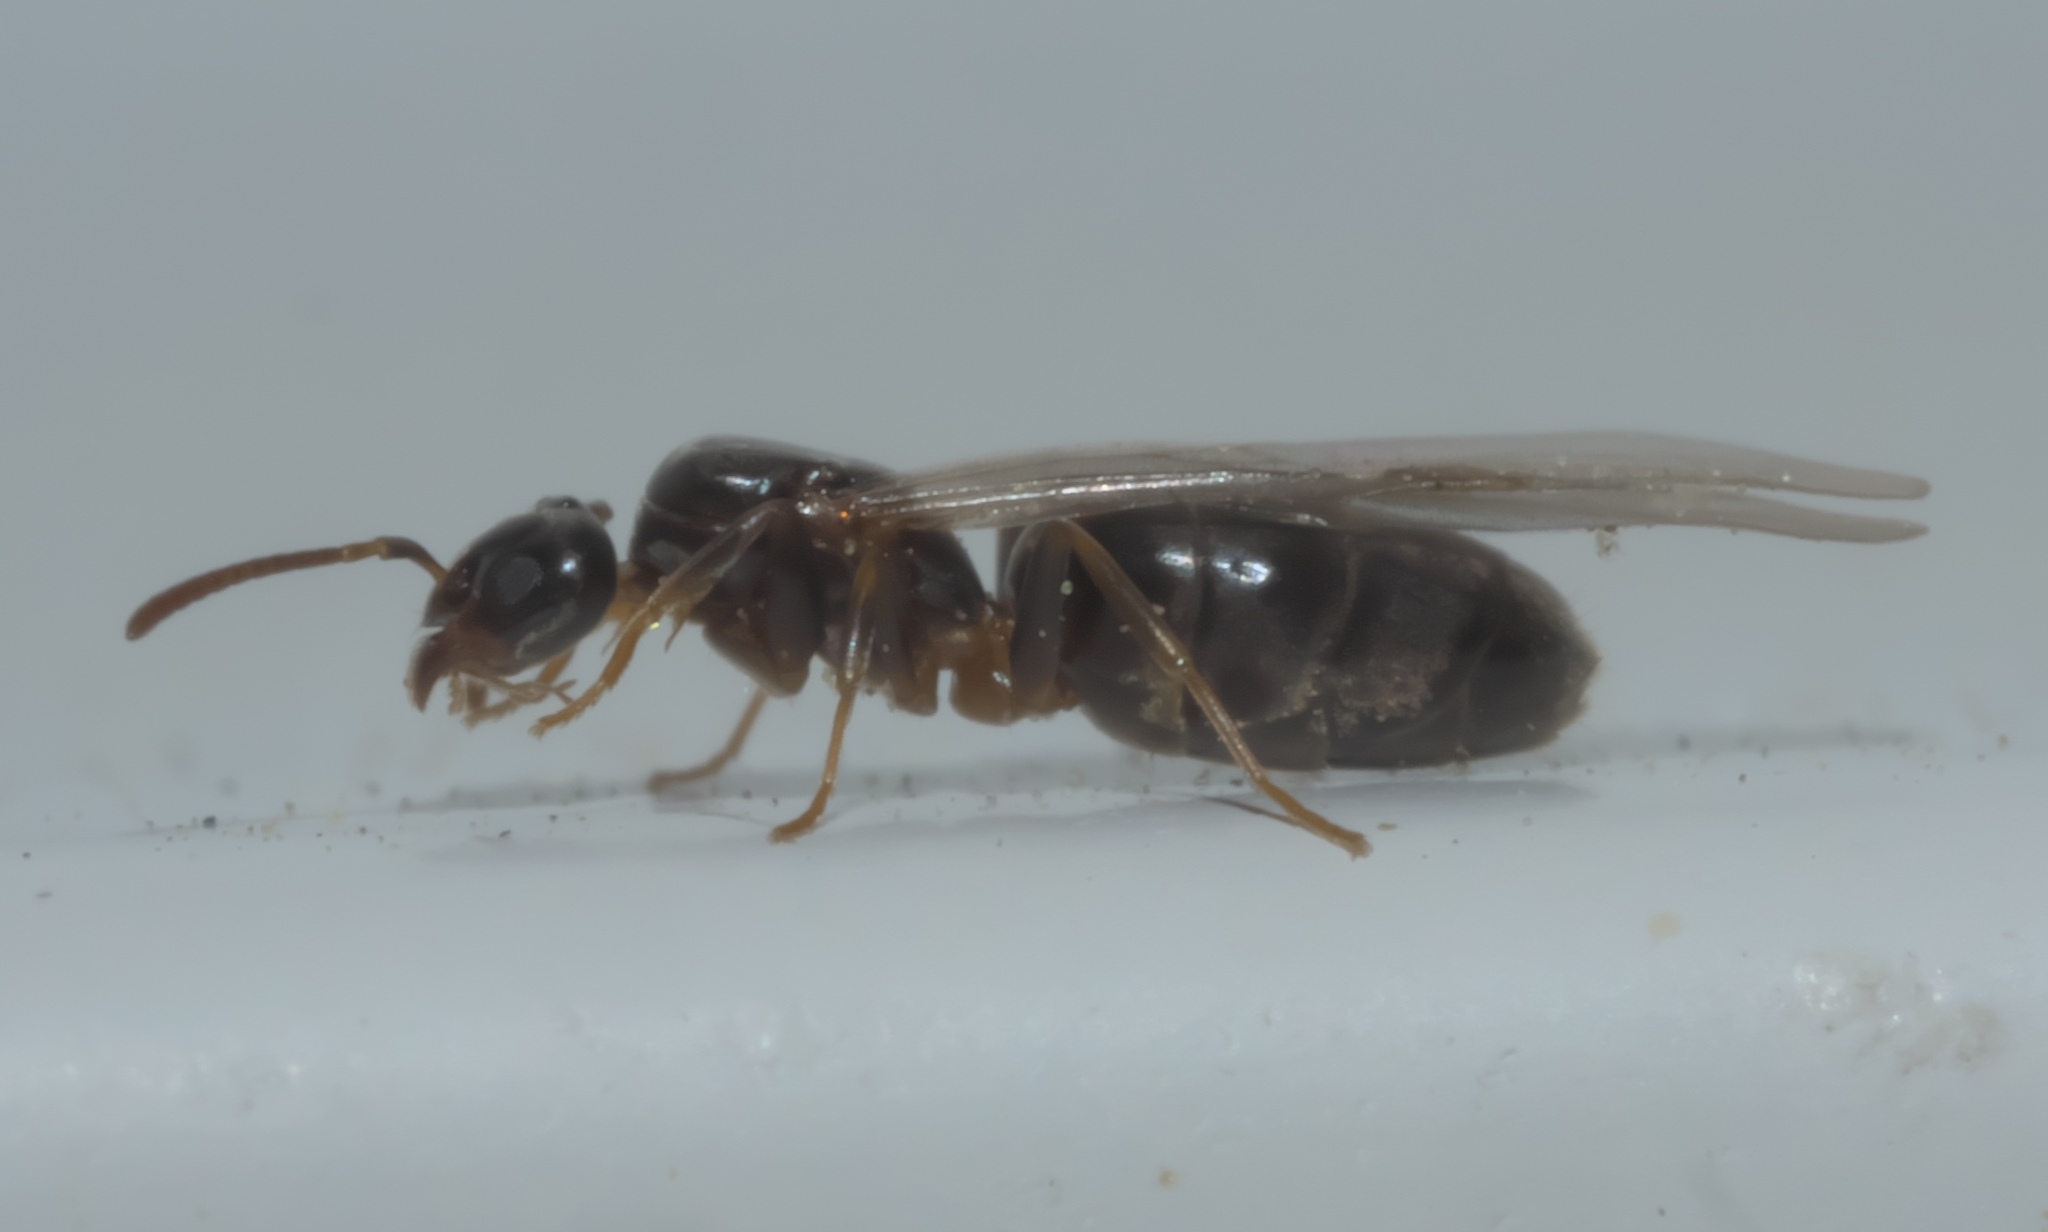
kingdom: Animalia
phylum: Arthropoda
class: Insecta
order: Hymenoptera
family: Formicidae
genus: Tapinoma
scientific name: Tapinoma sessile
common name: Odorous house ant
